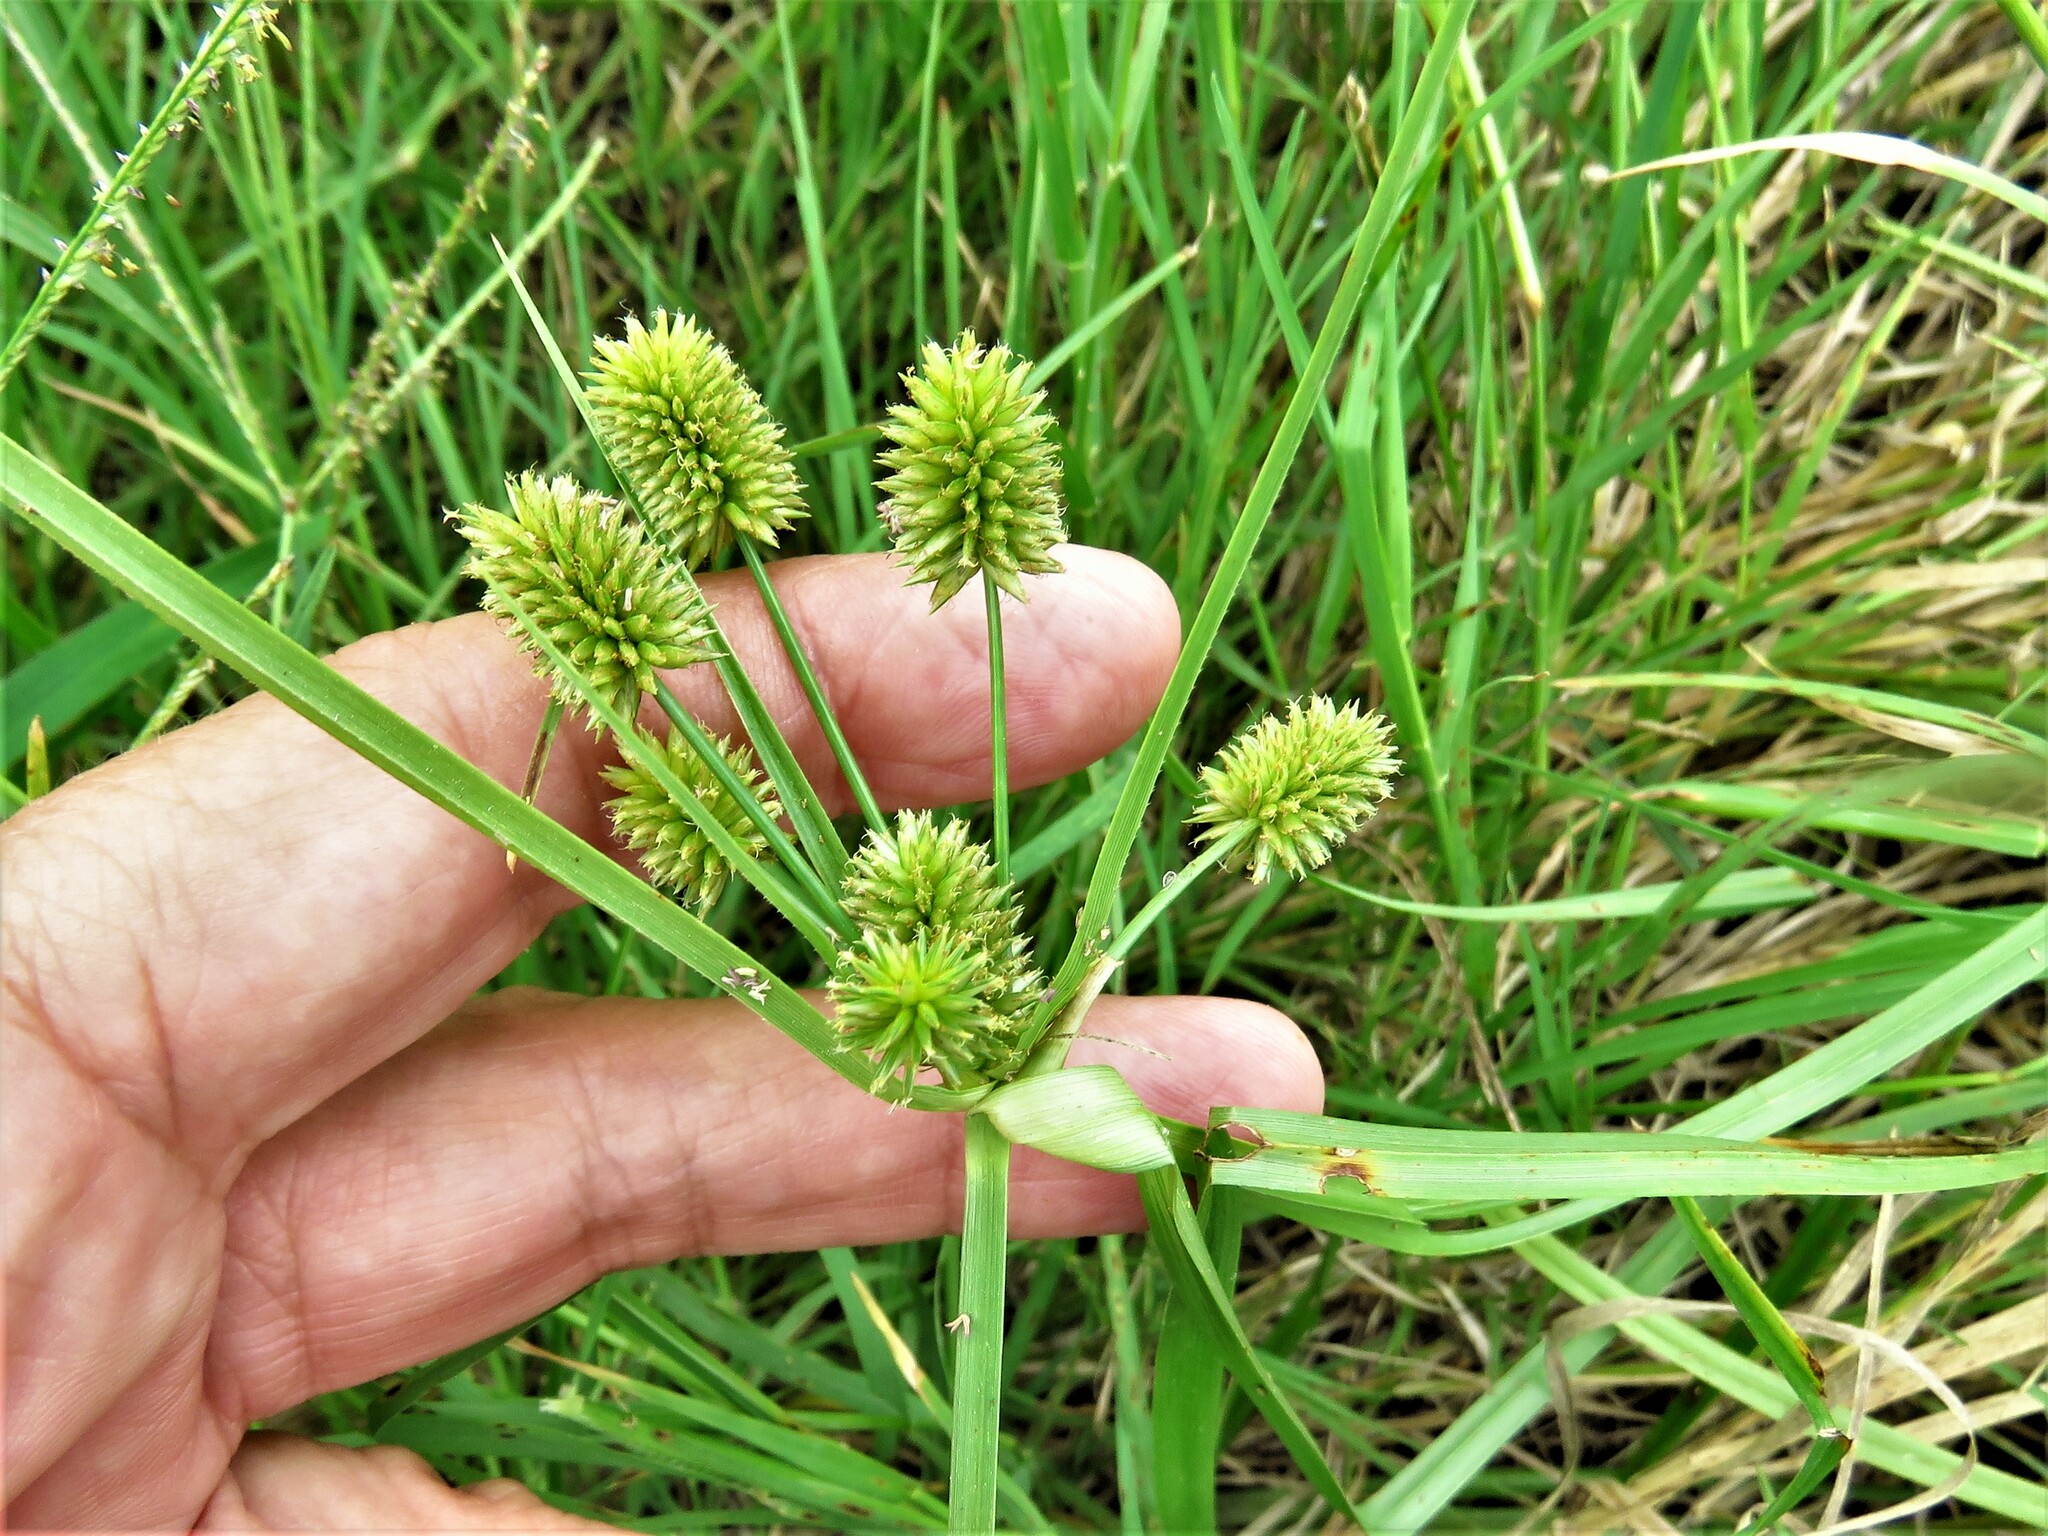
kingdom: Plantae
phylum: Tracheophyta
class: Liliopsida
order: Poales
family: Cyperaceae
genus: Cyperus
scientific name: Cyperus retrorsus
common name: Pinebarren flat sedge
